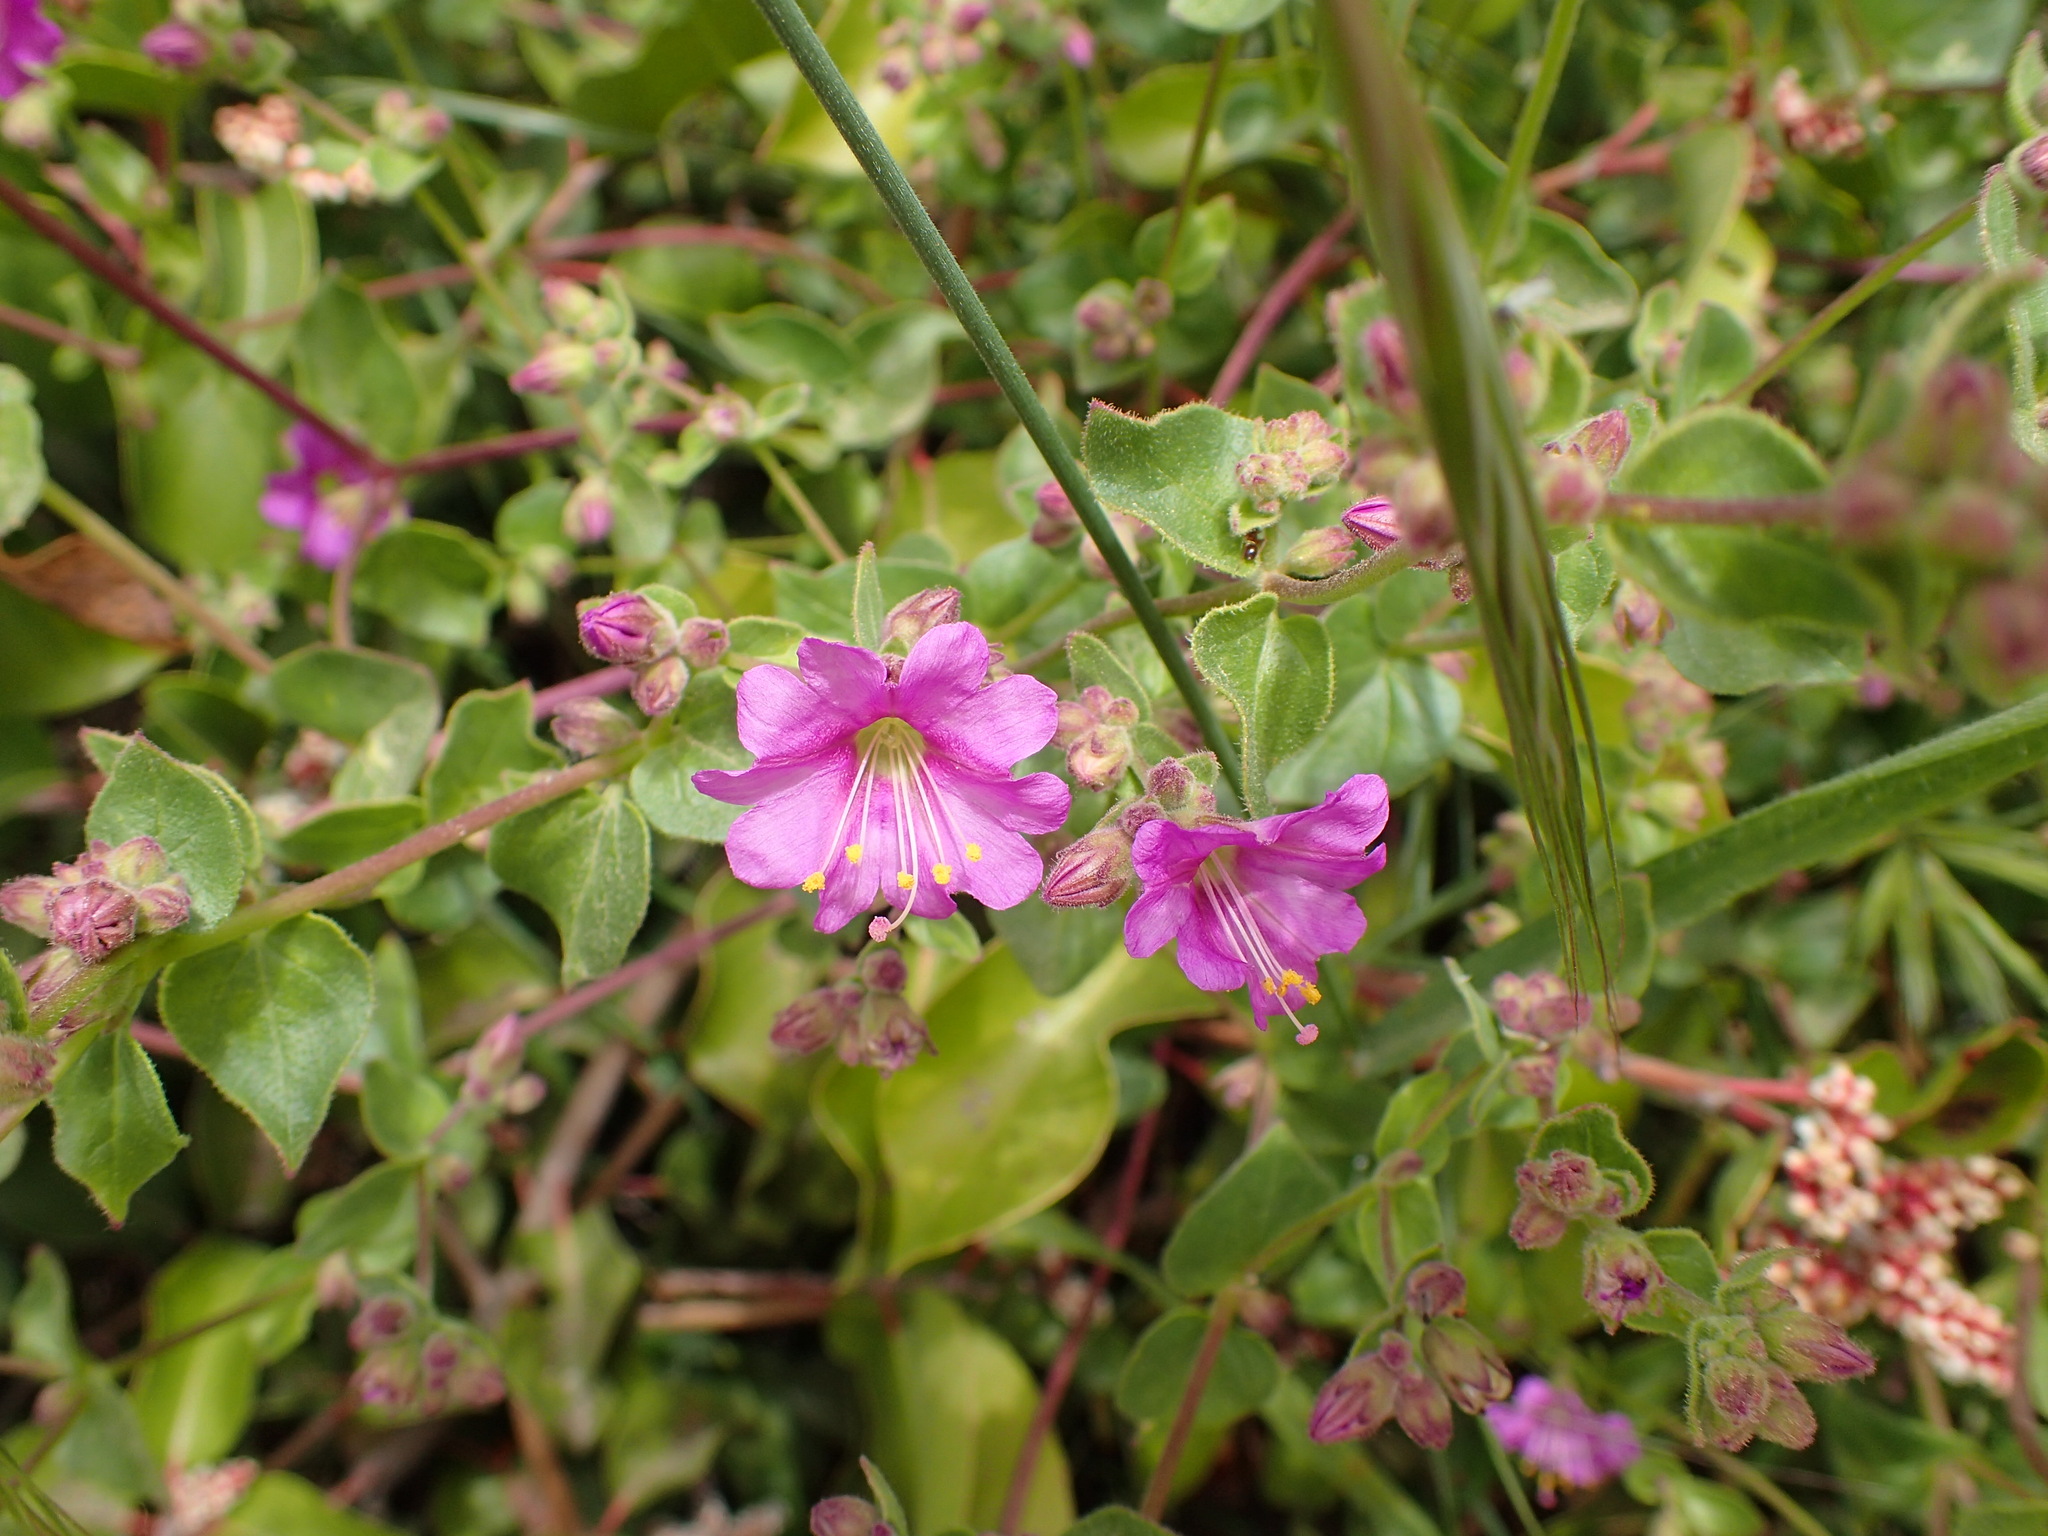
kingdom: Plantae
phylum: Tracheophyta
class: Magnoliopsida
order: Caryophyllales
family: Nyctaginaceae
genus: Mirabilis
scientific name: Mirabilis laevis
